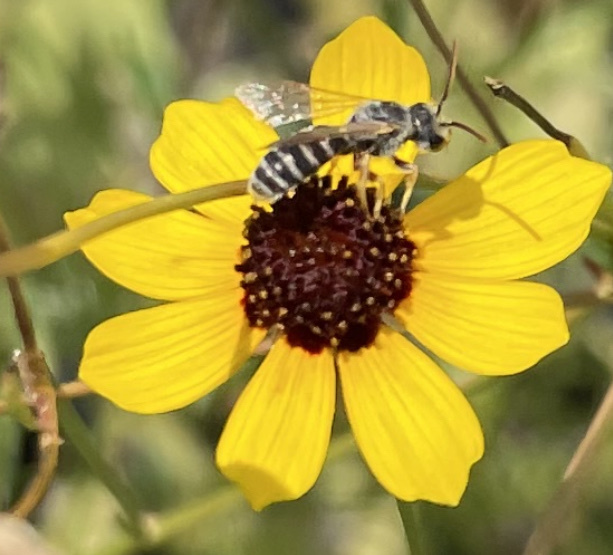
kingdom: Animalia
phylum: Arthropoda
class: Insecta
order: Hymenoptera
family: Halictidae
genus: Halictus
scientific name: Halictus ligatus
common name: Ligated furrow bee
